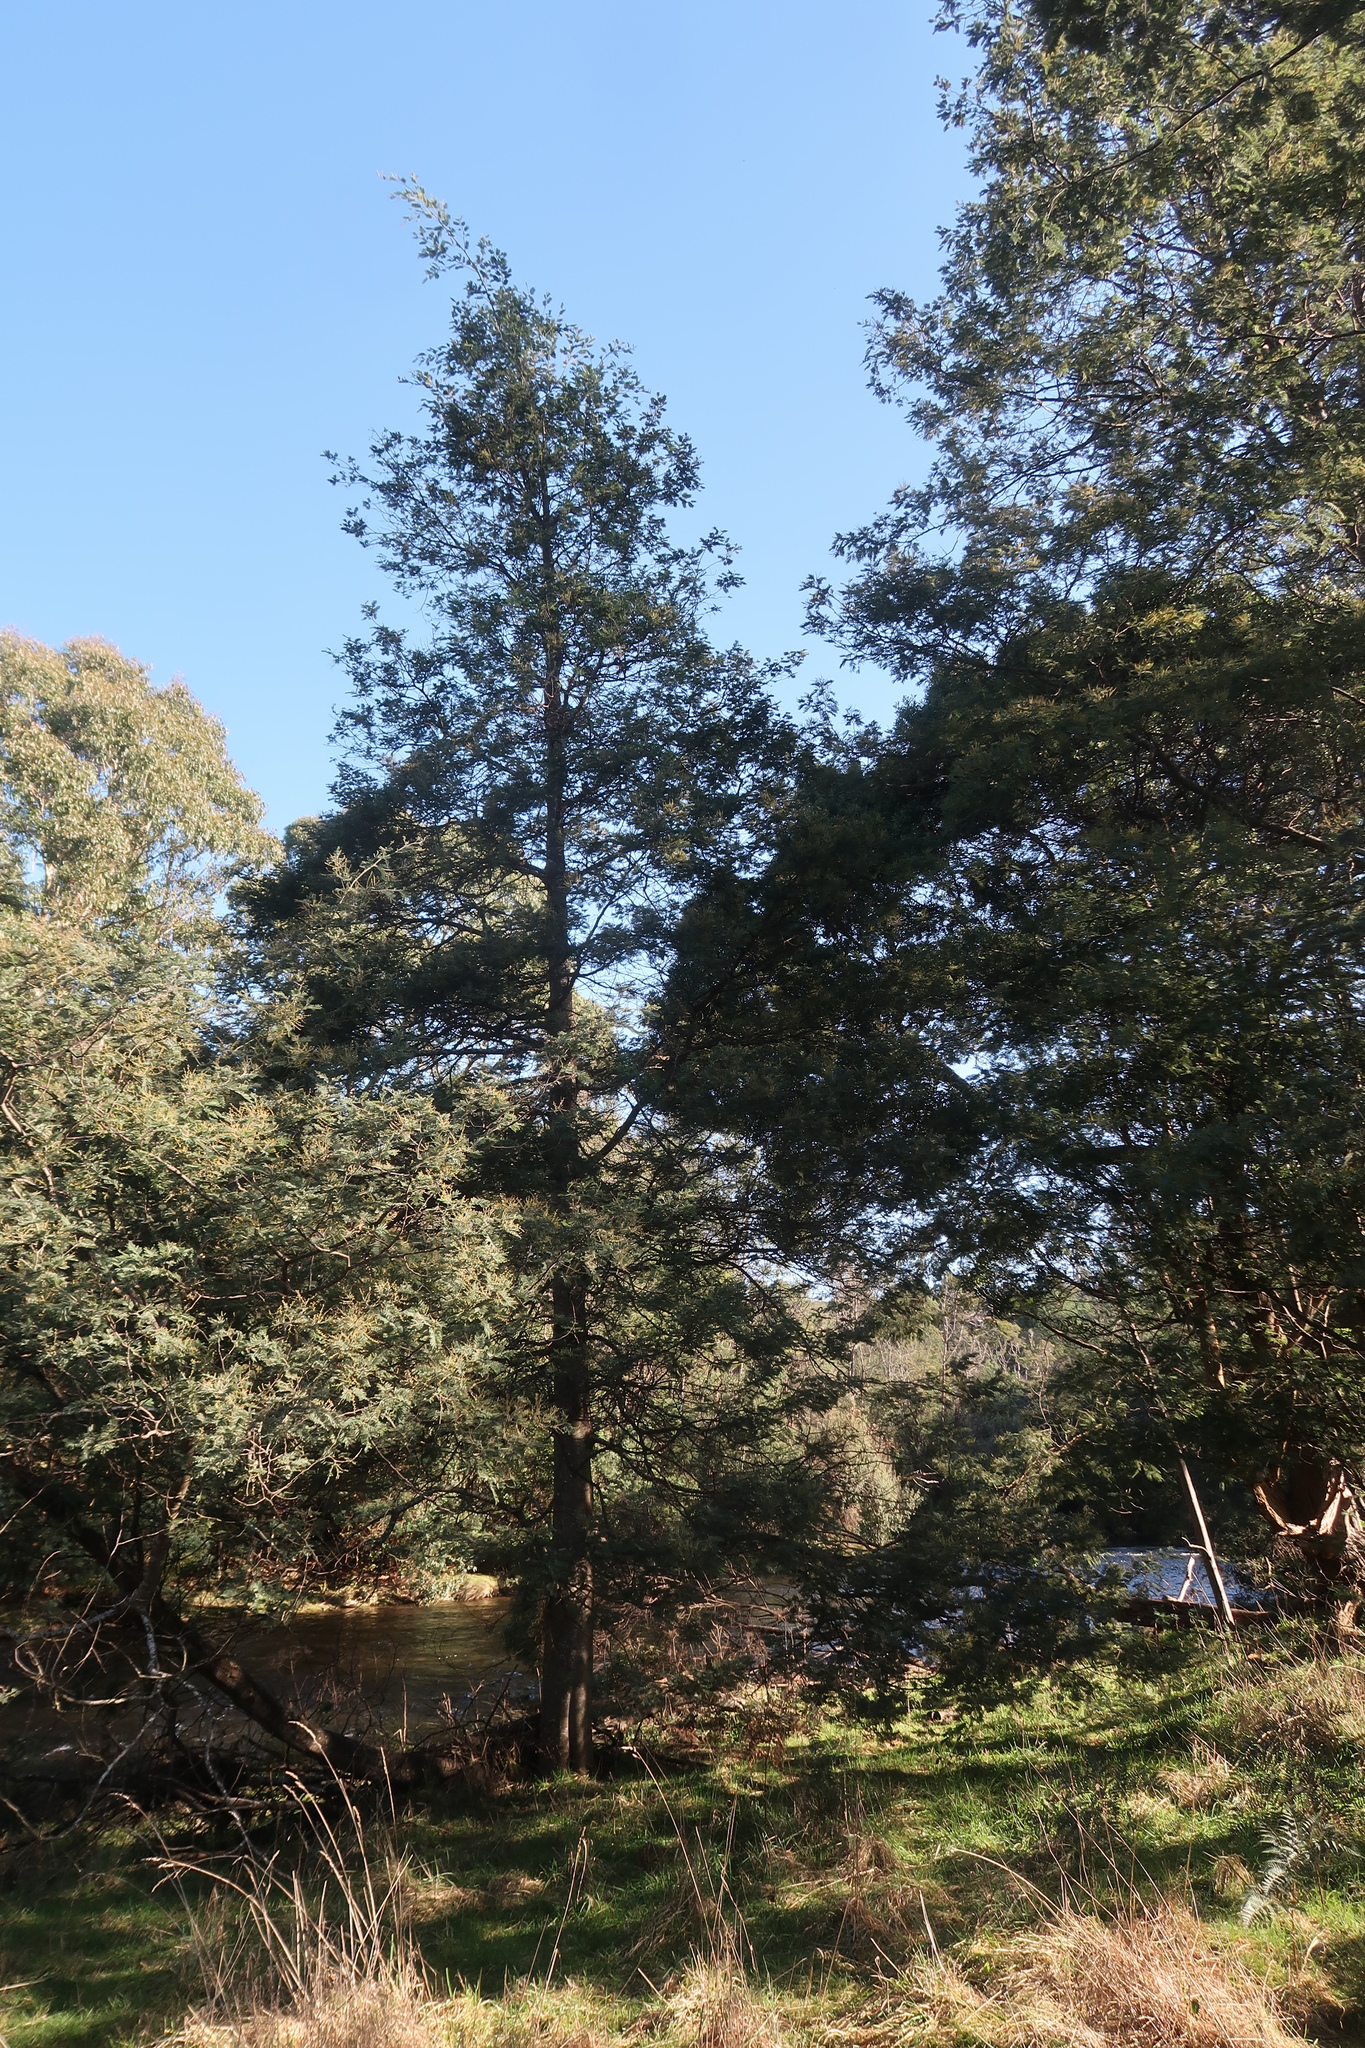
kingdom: Plantae
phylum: Tracheophyta
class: Magnoliopsida
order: Fabales
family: Fabaceae
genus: Acacia
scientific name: Acacia dealbata
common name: Silver wattle
